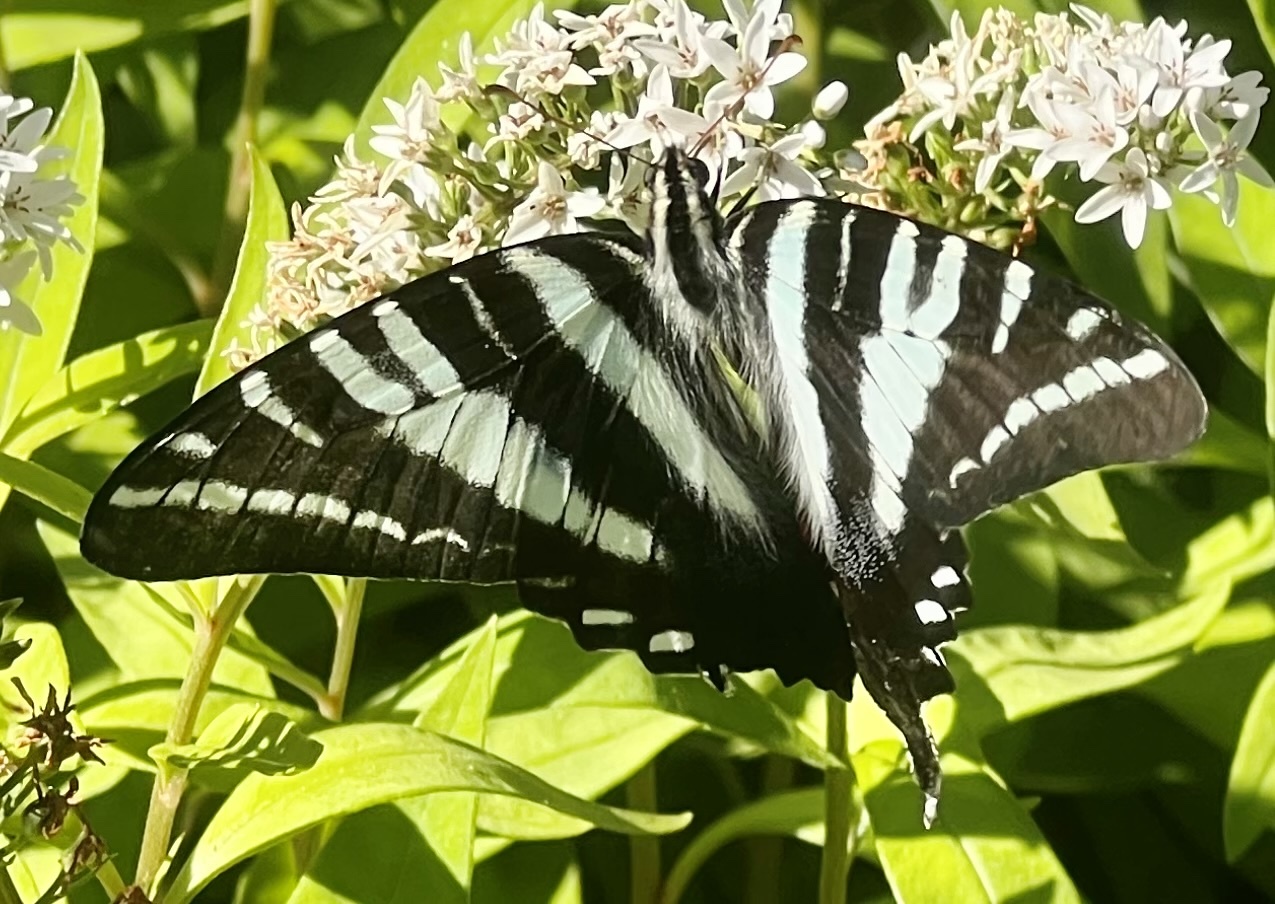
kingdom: Animalia
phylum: Arthropoda
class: Insecta
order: Lepidoptera
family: Papilionidae
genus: Protographium
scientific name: Protographium marcellus
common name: Zebra swallowtail
